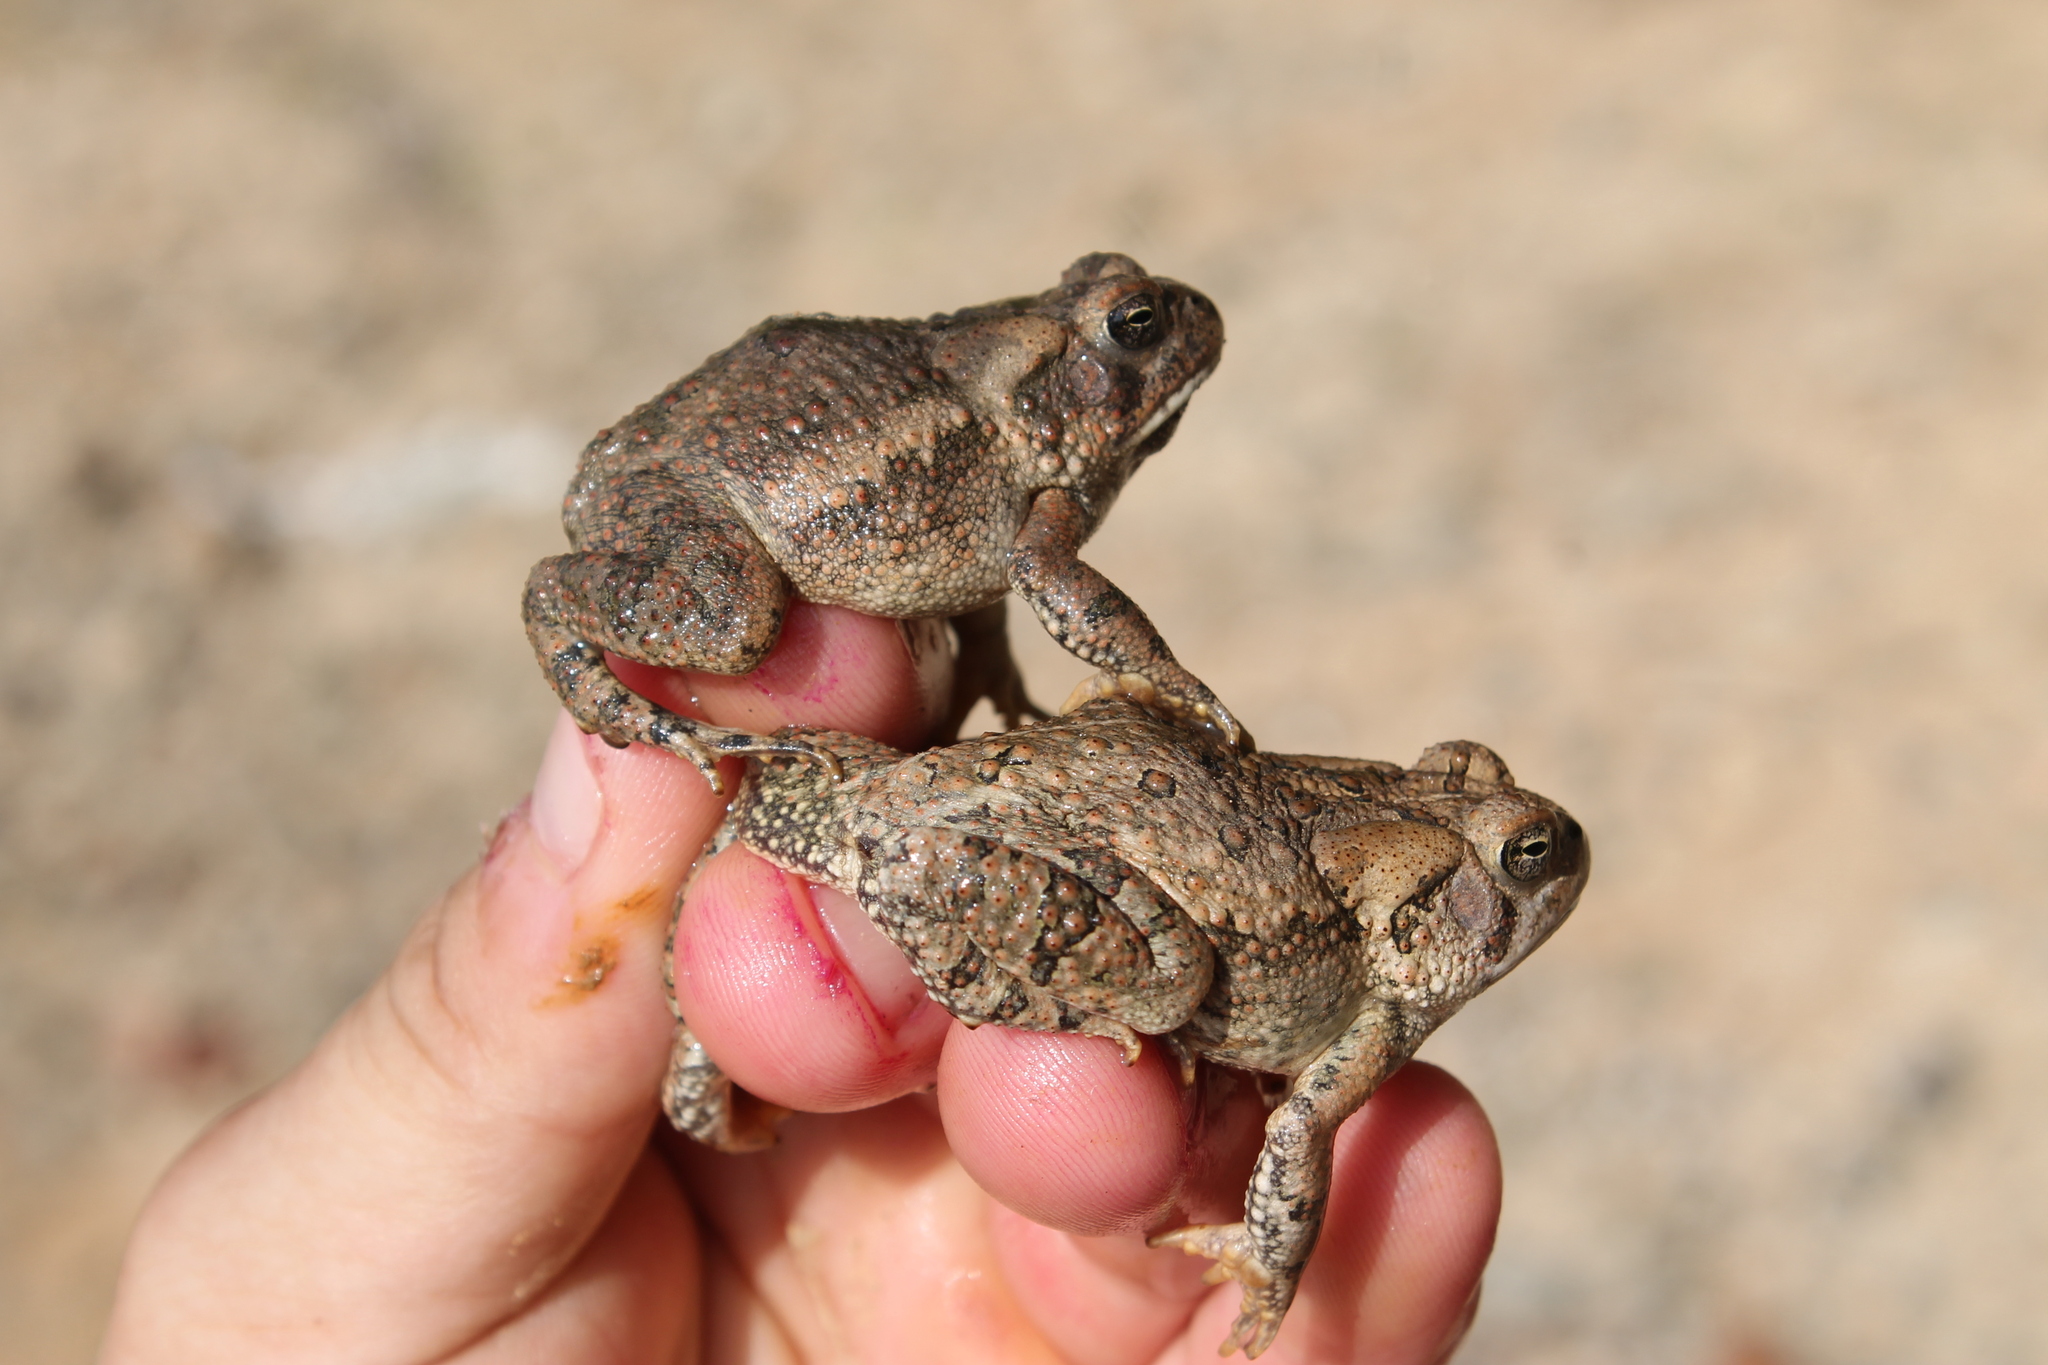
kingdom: Animalia
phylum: Chordata
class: Amphibia
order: Anura
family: Bufonidae
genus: Anaxyrus
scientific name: Anaxyrus fowleri
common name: Fowler's toad
